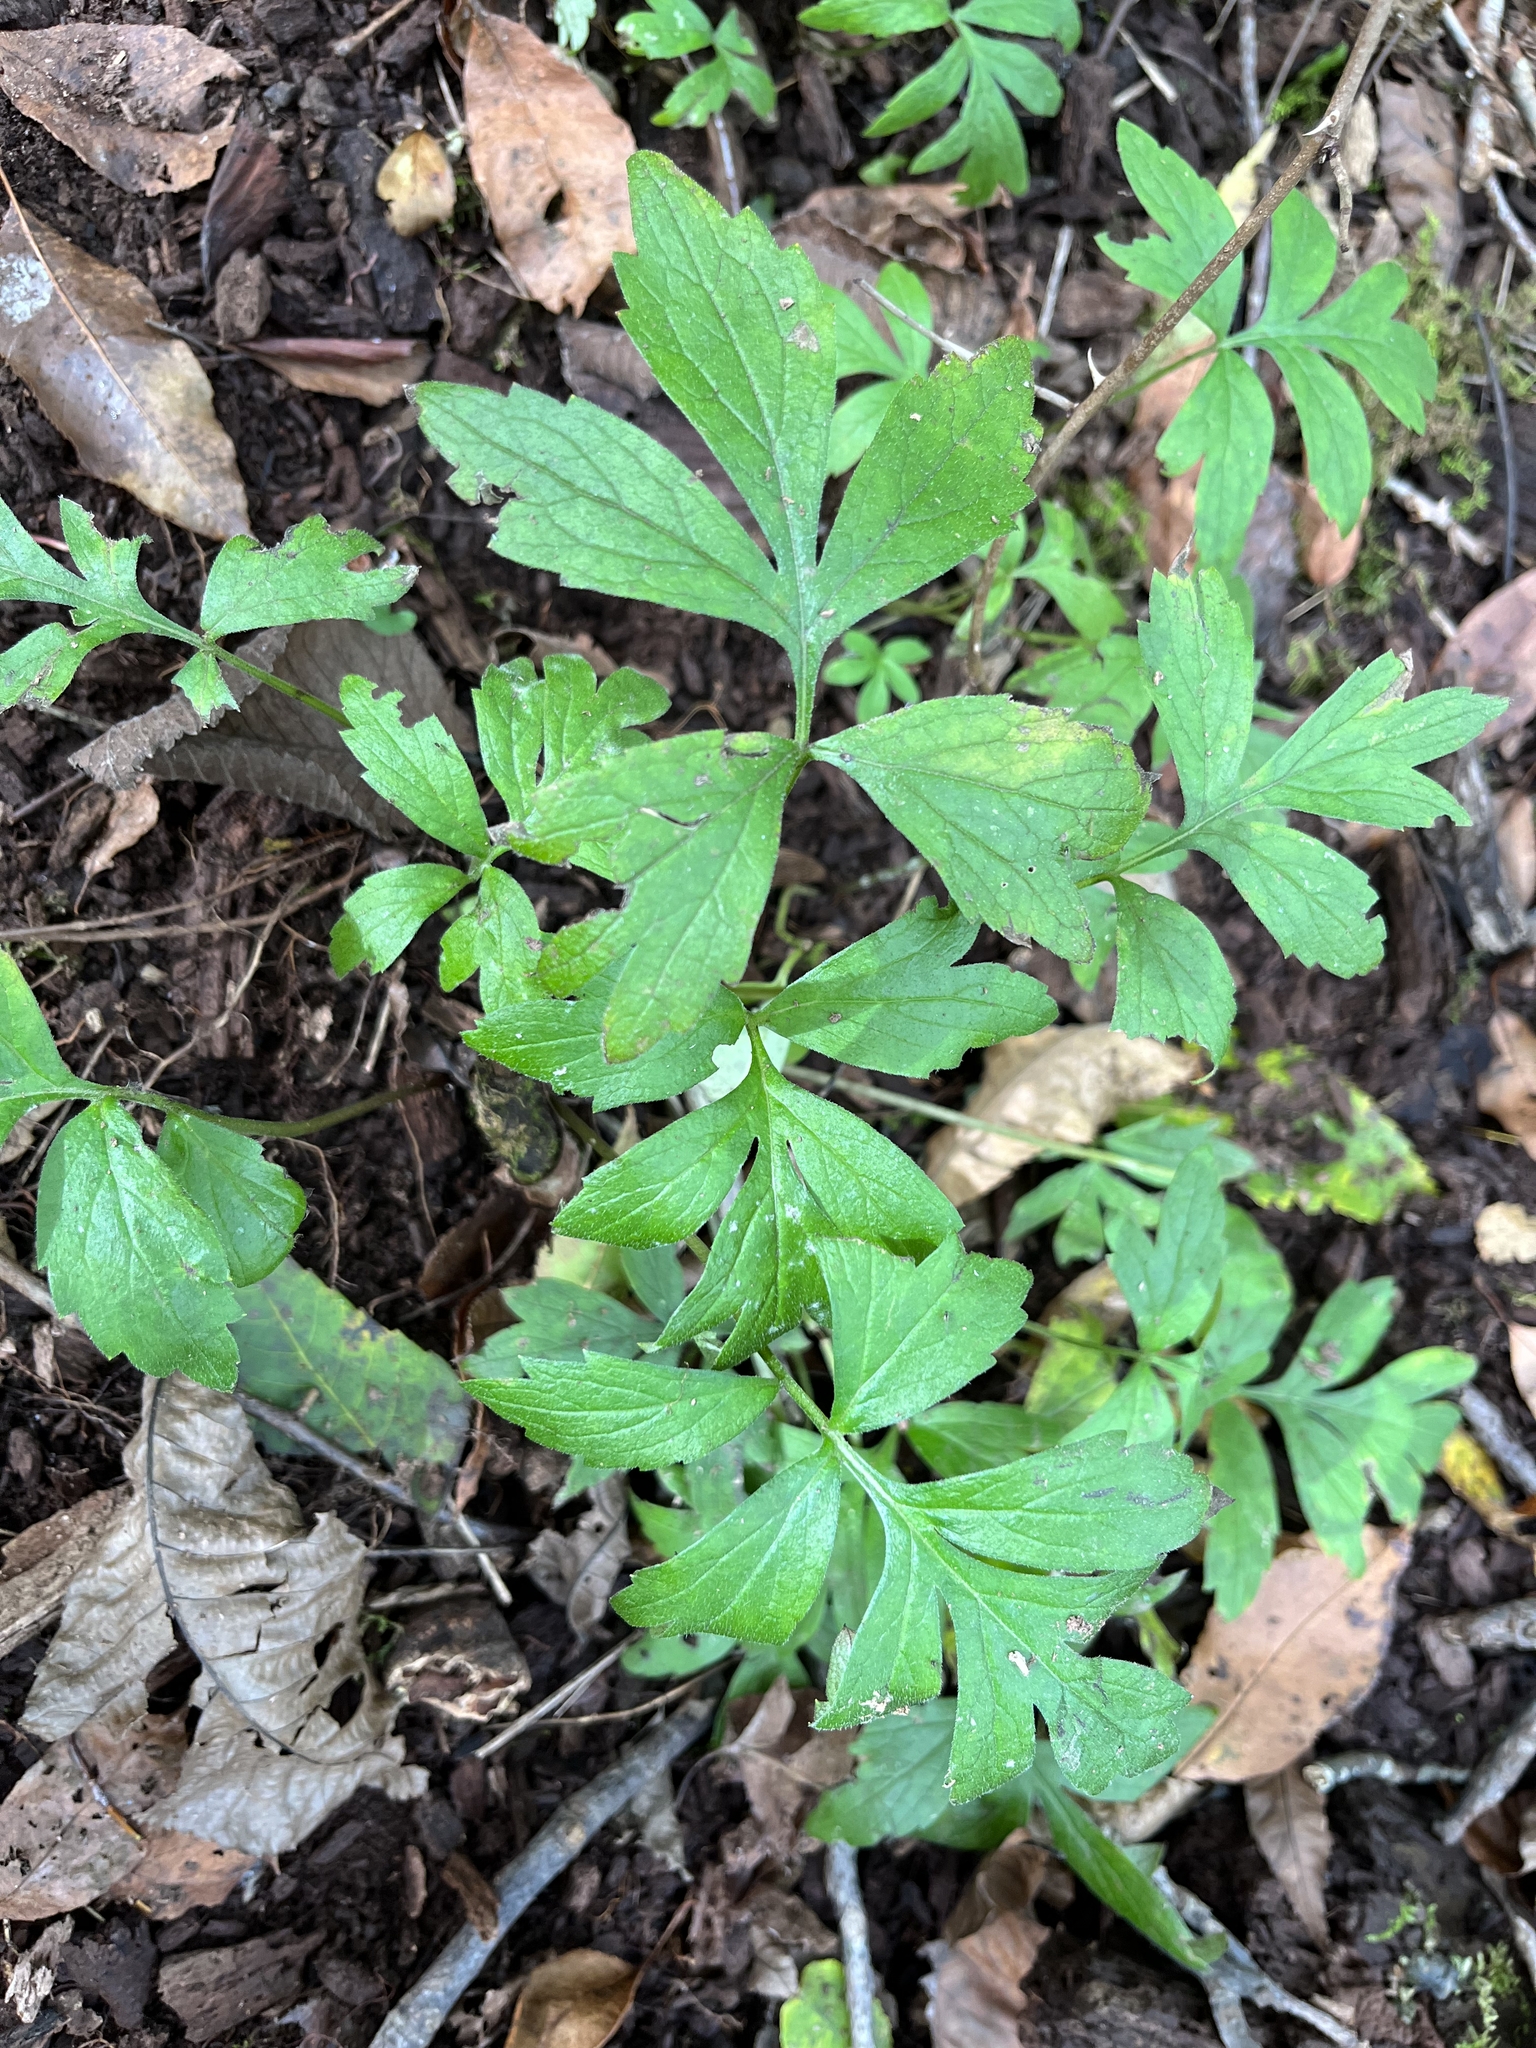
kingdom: Plantae
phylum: Tracheophyta
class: Magnoliopsida
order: Boraginales
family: Hydrophyllaceae
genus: Hydrophyllum
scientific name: Hydrophyllum virginianum
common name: Virginia waterleaf
